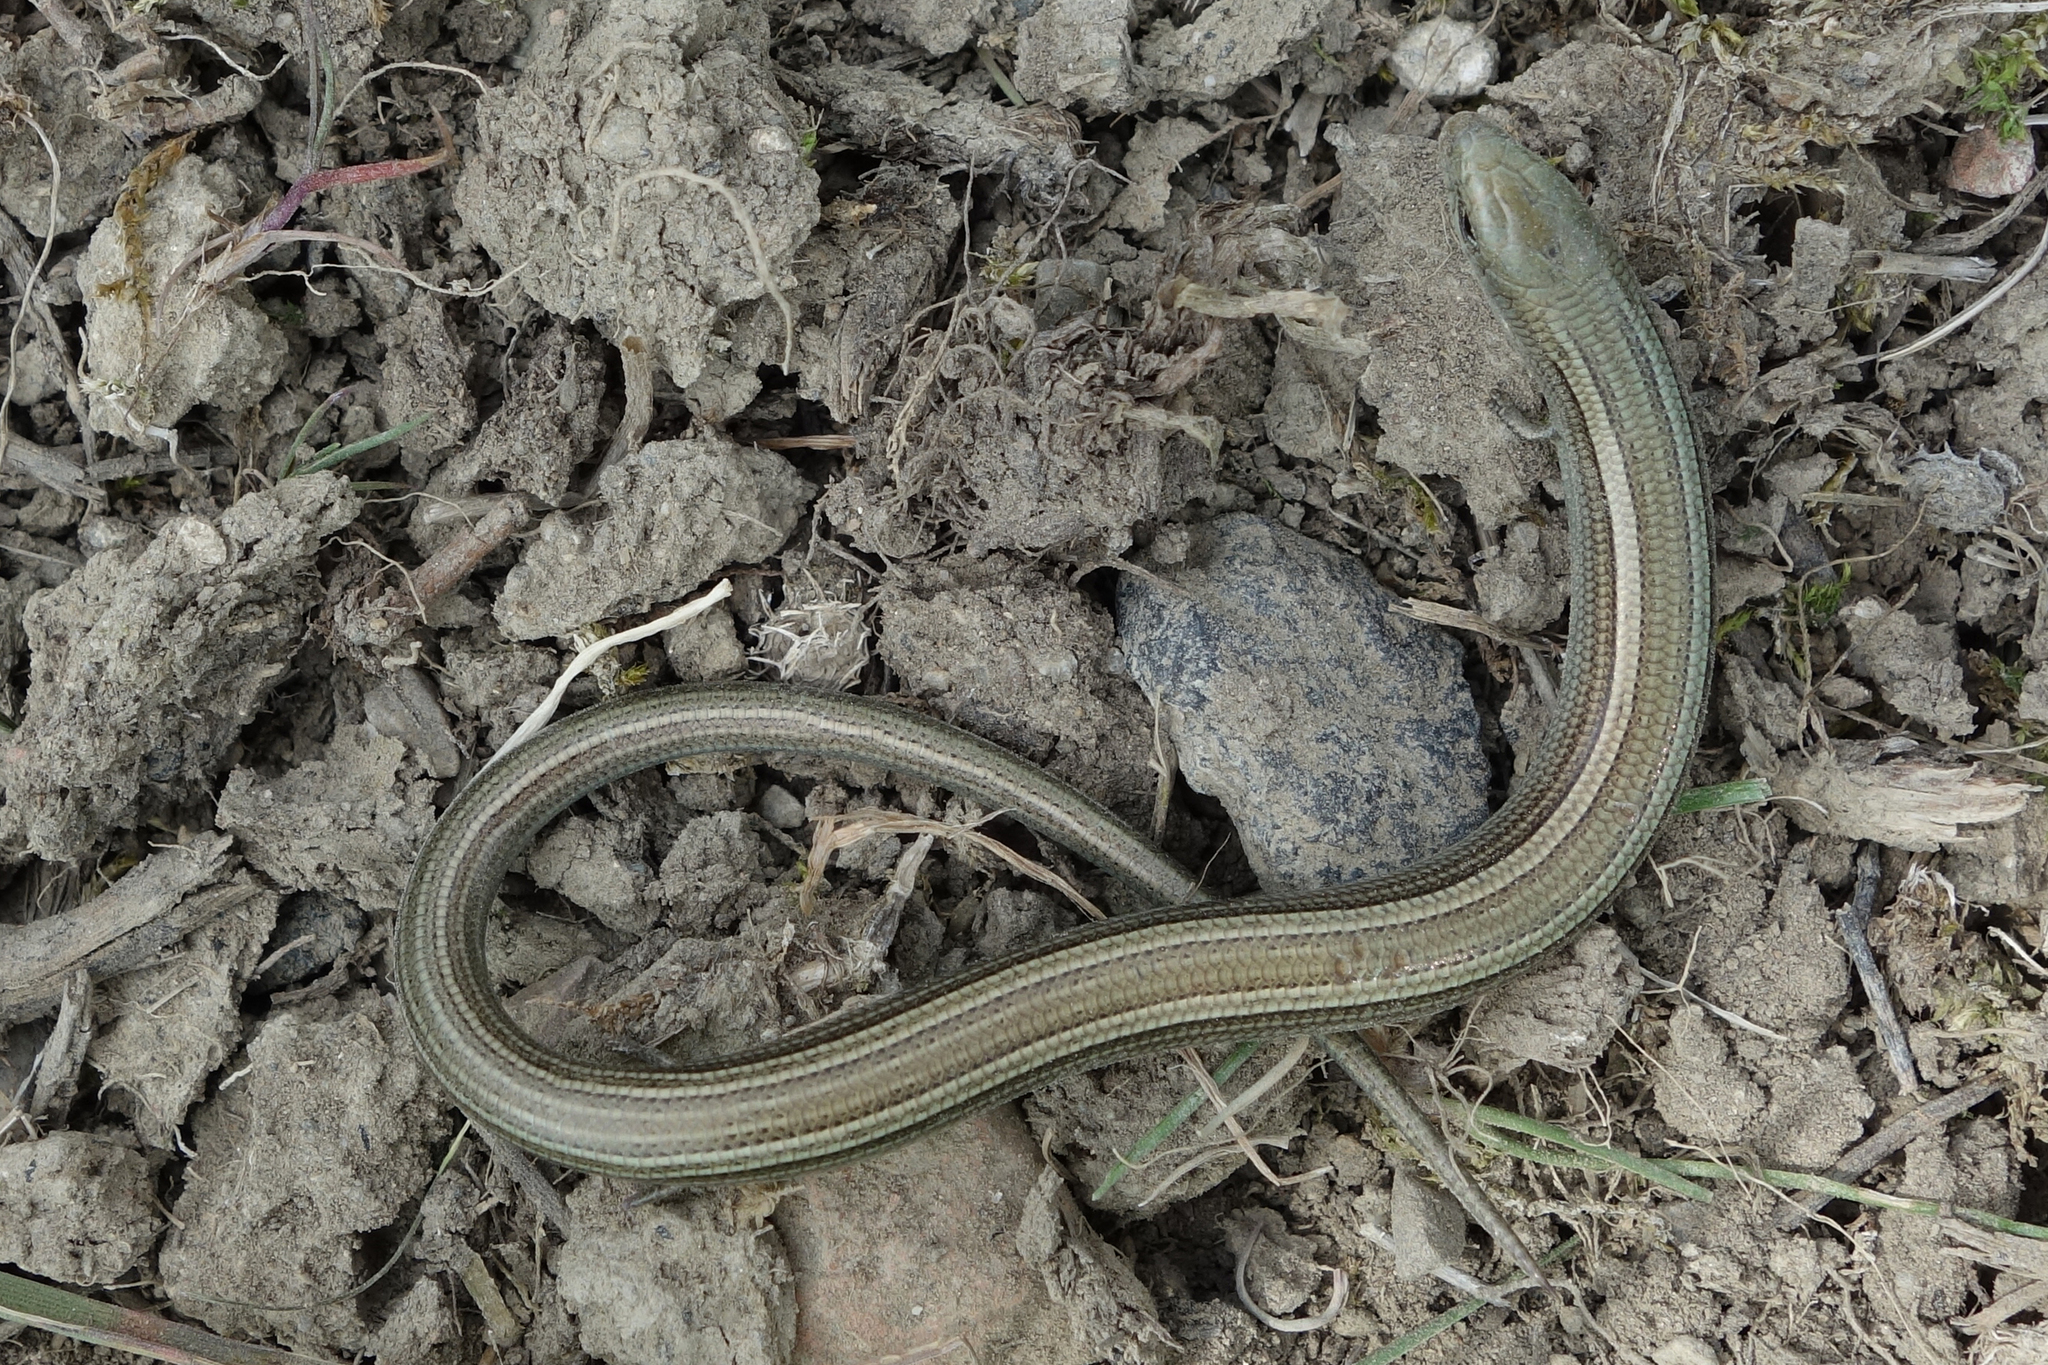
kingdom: Animalia
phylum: Chordata
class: Squamata
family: Scincidae
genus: Chalcides
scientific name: Chalcides chalcides
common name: Italian three-toed skink
